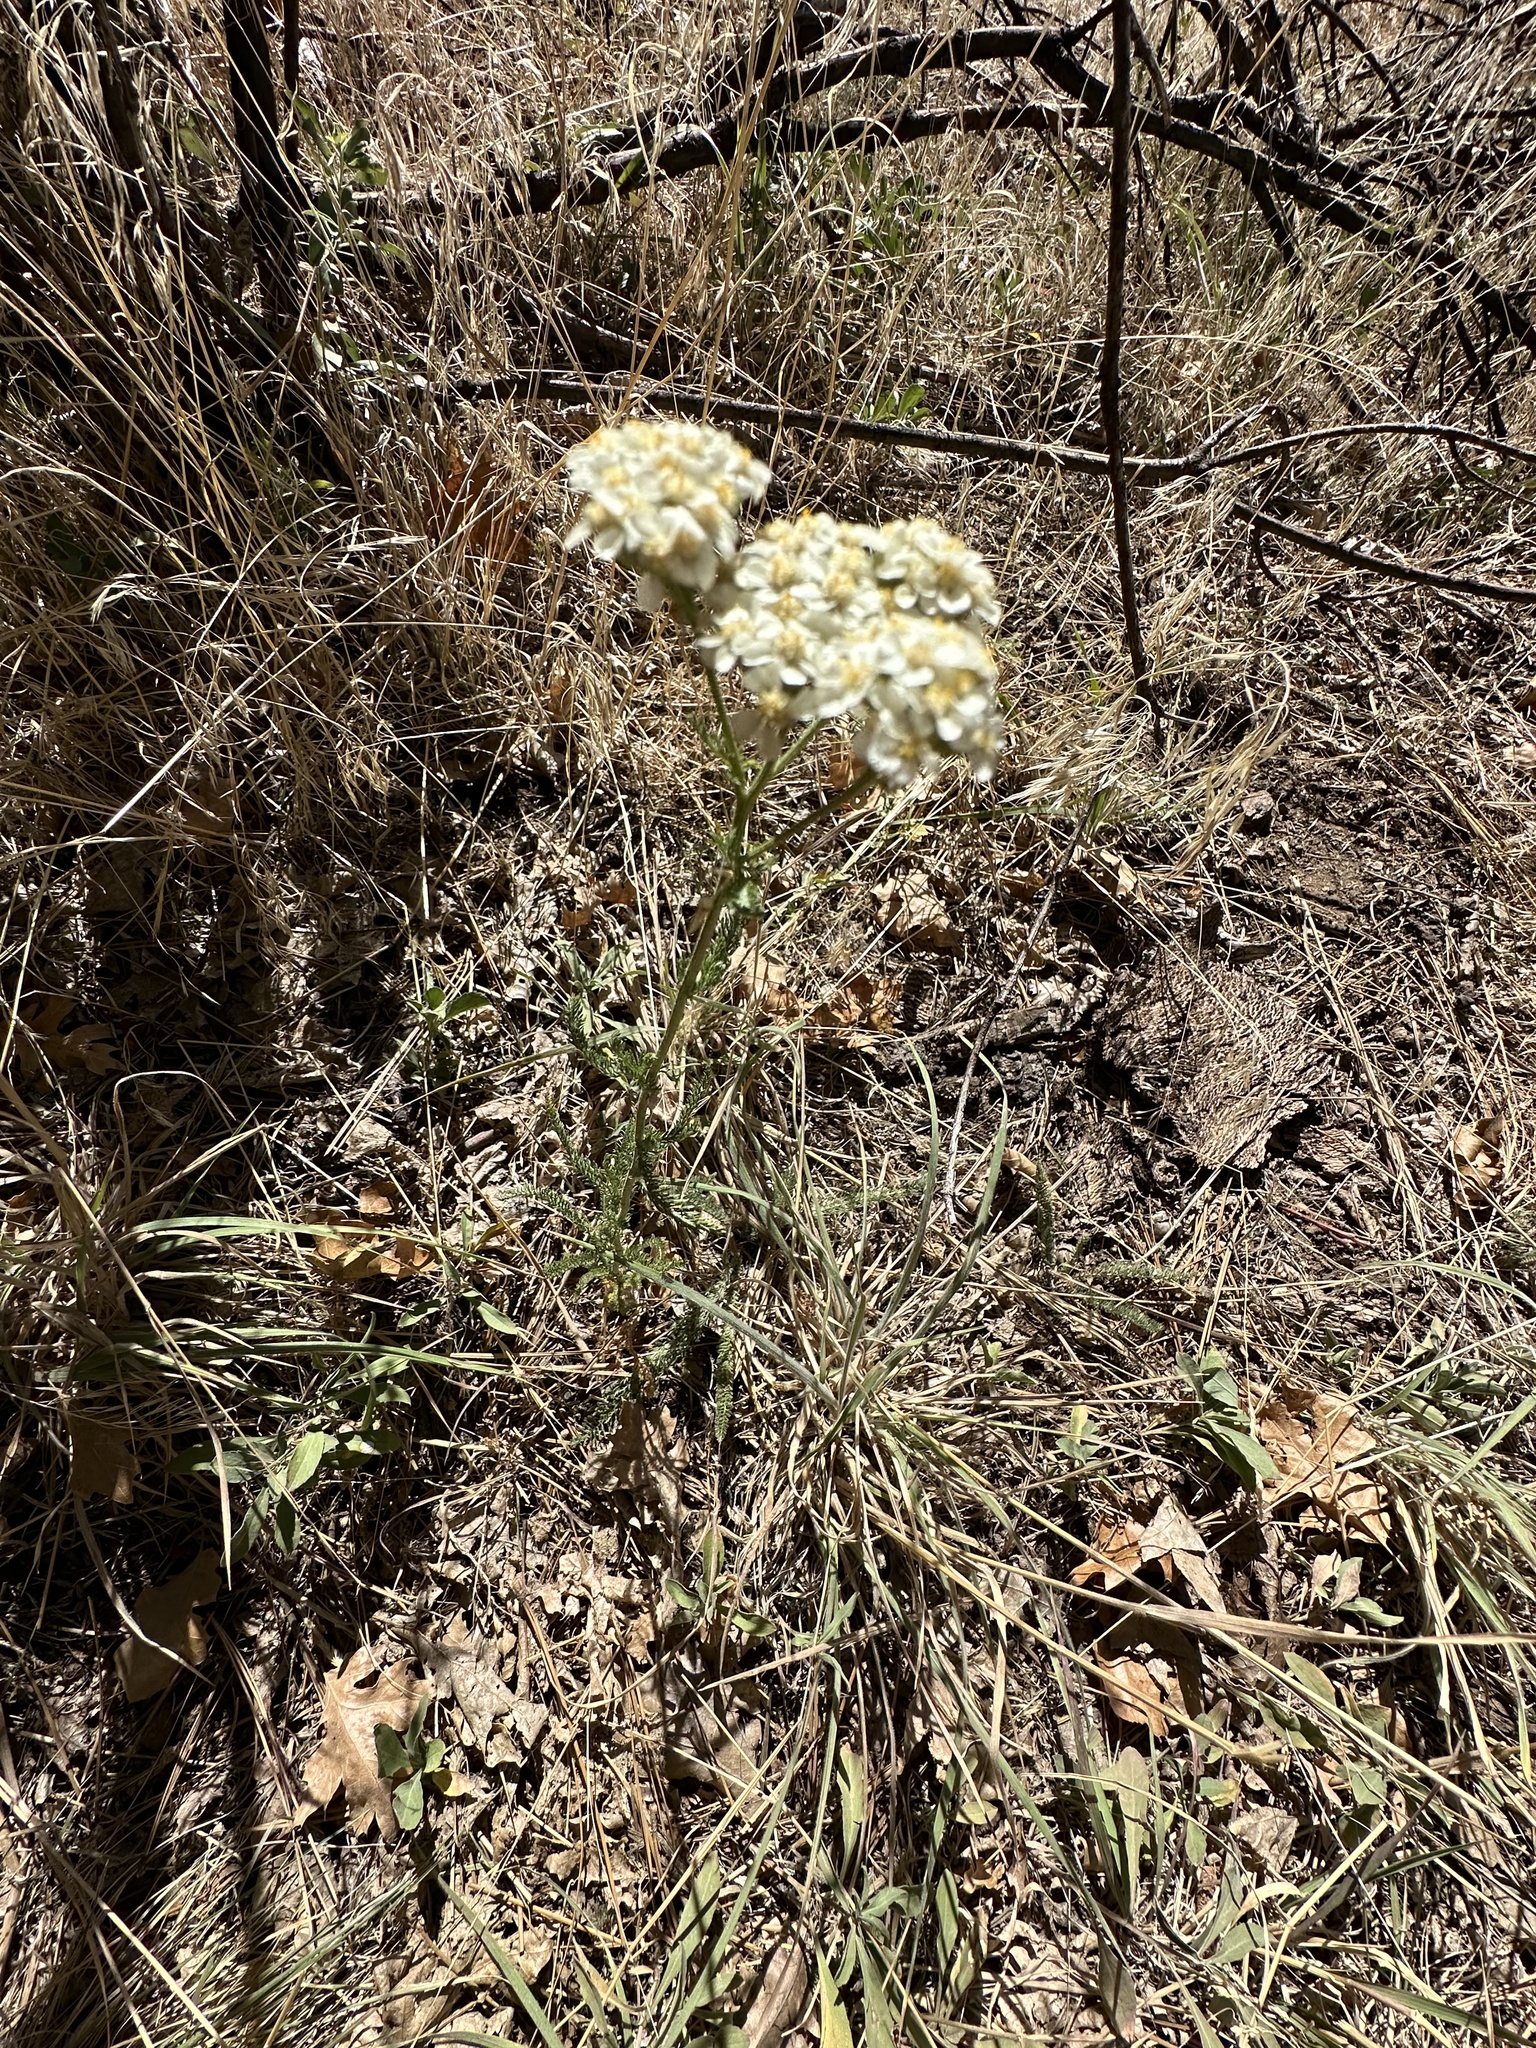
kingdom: Plantae
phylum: Tracheophyta
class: Magnoliopsida
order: Asterales
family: Asteraceae
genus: Achillea
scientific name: Achillea millefolium
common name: Yarrow
